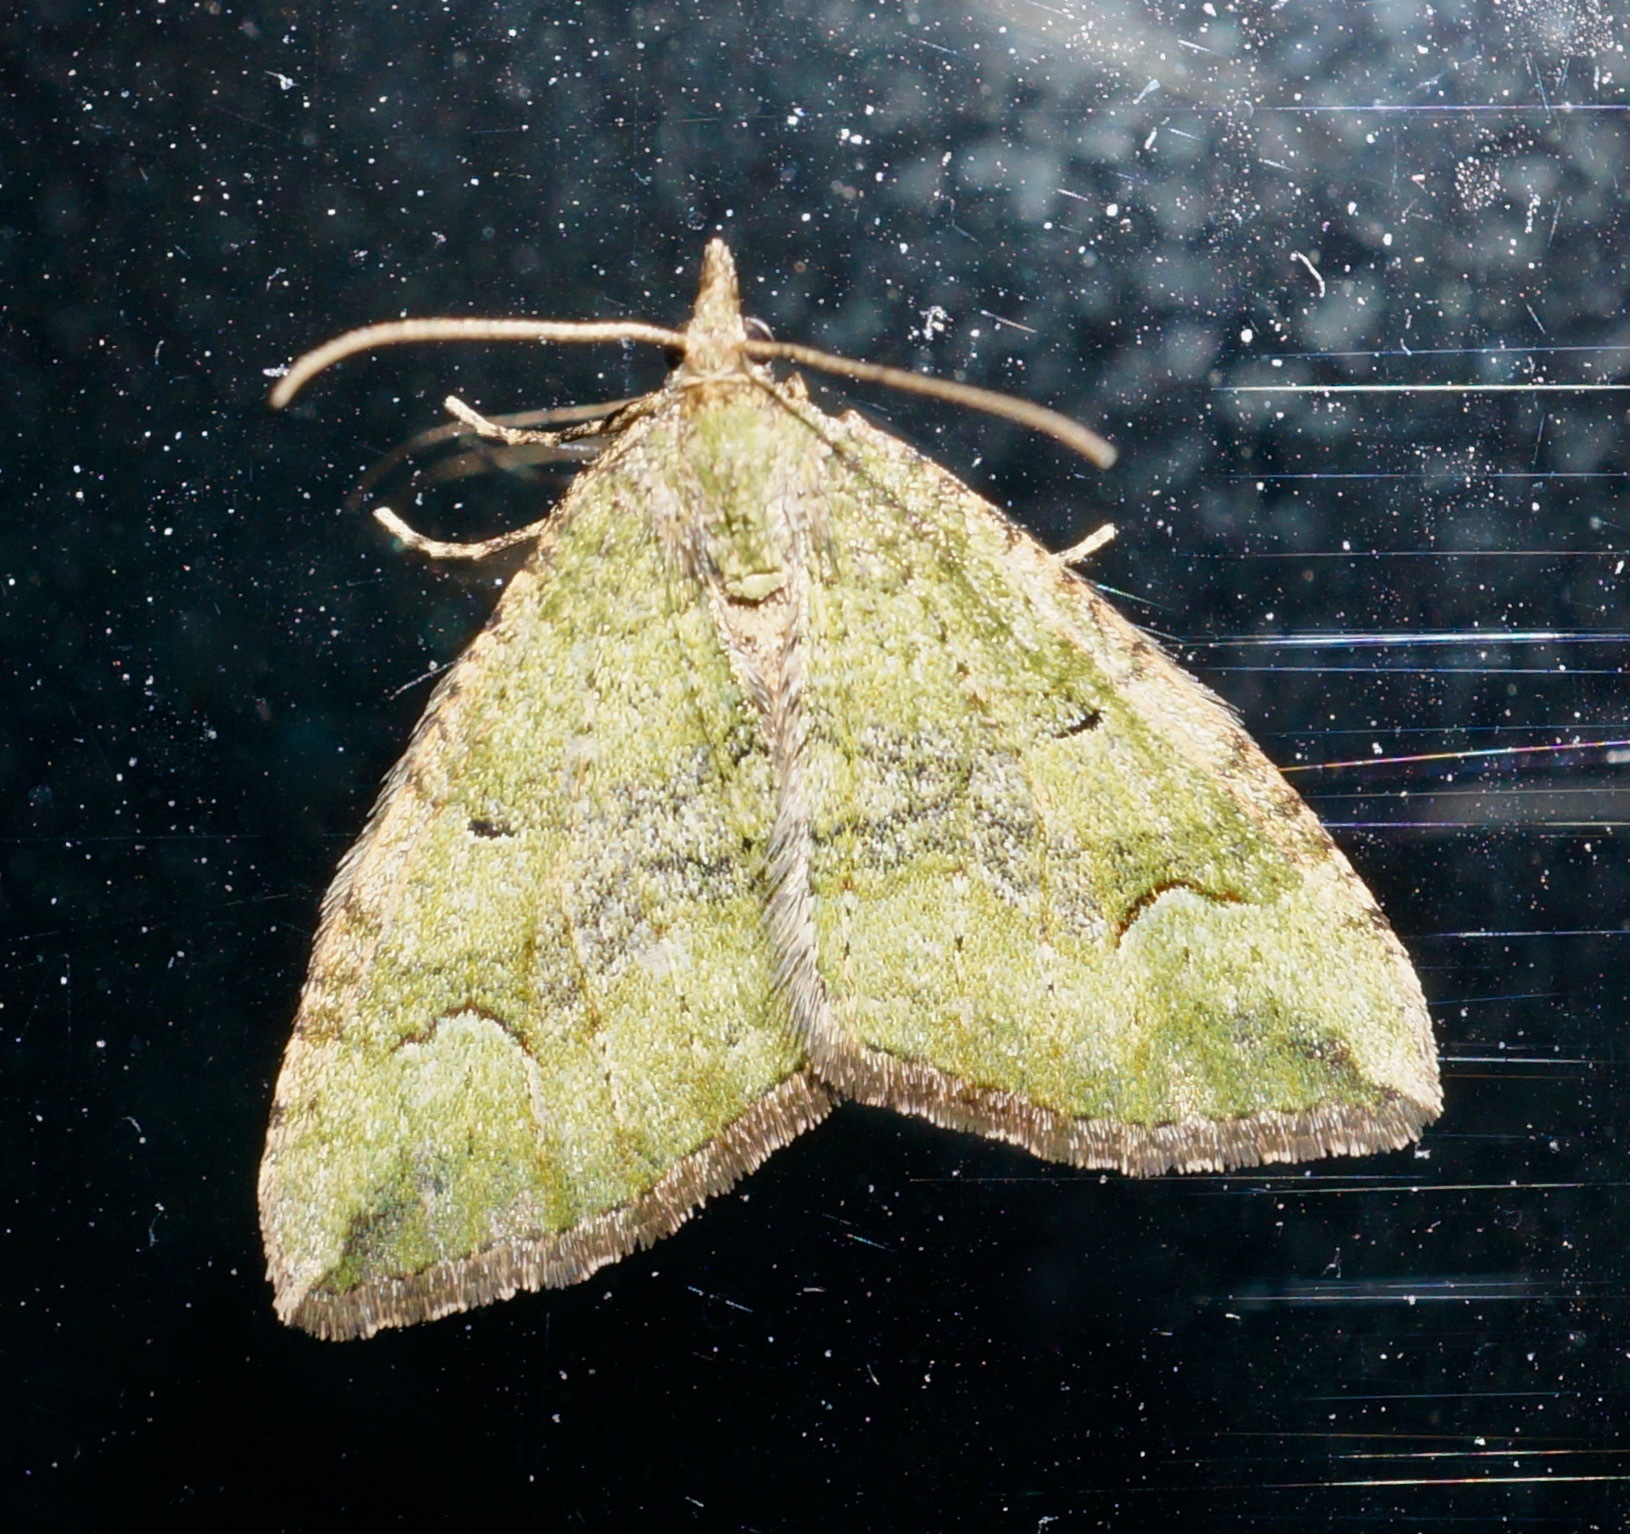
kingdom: Animalia
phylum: Arthropoda
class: Insecta
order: Lepidoptera
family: Geometridae
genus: Epyaxa
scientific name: Epyaxa rosearia
